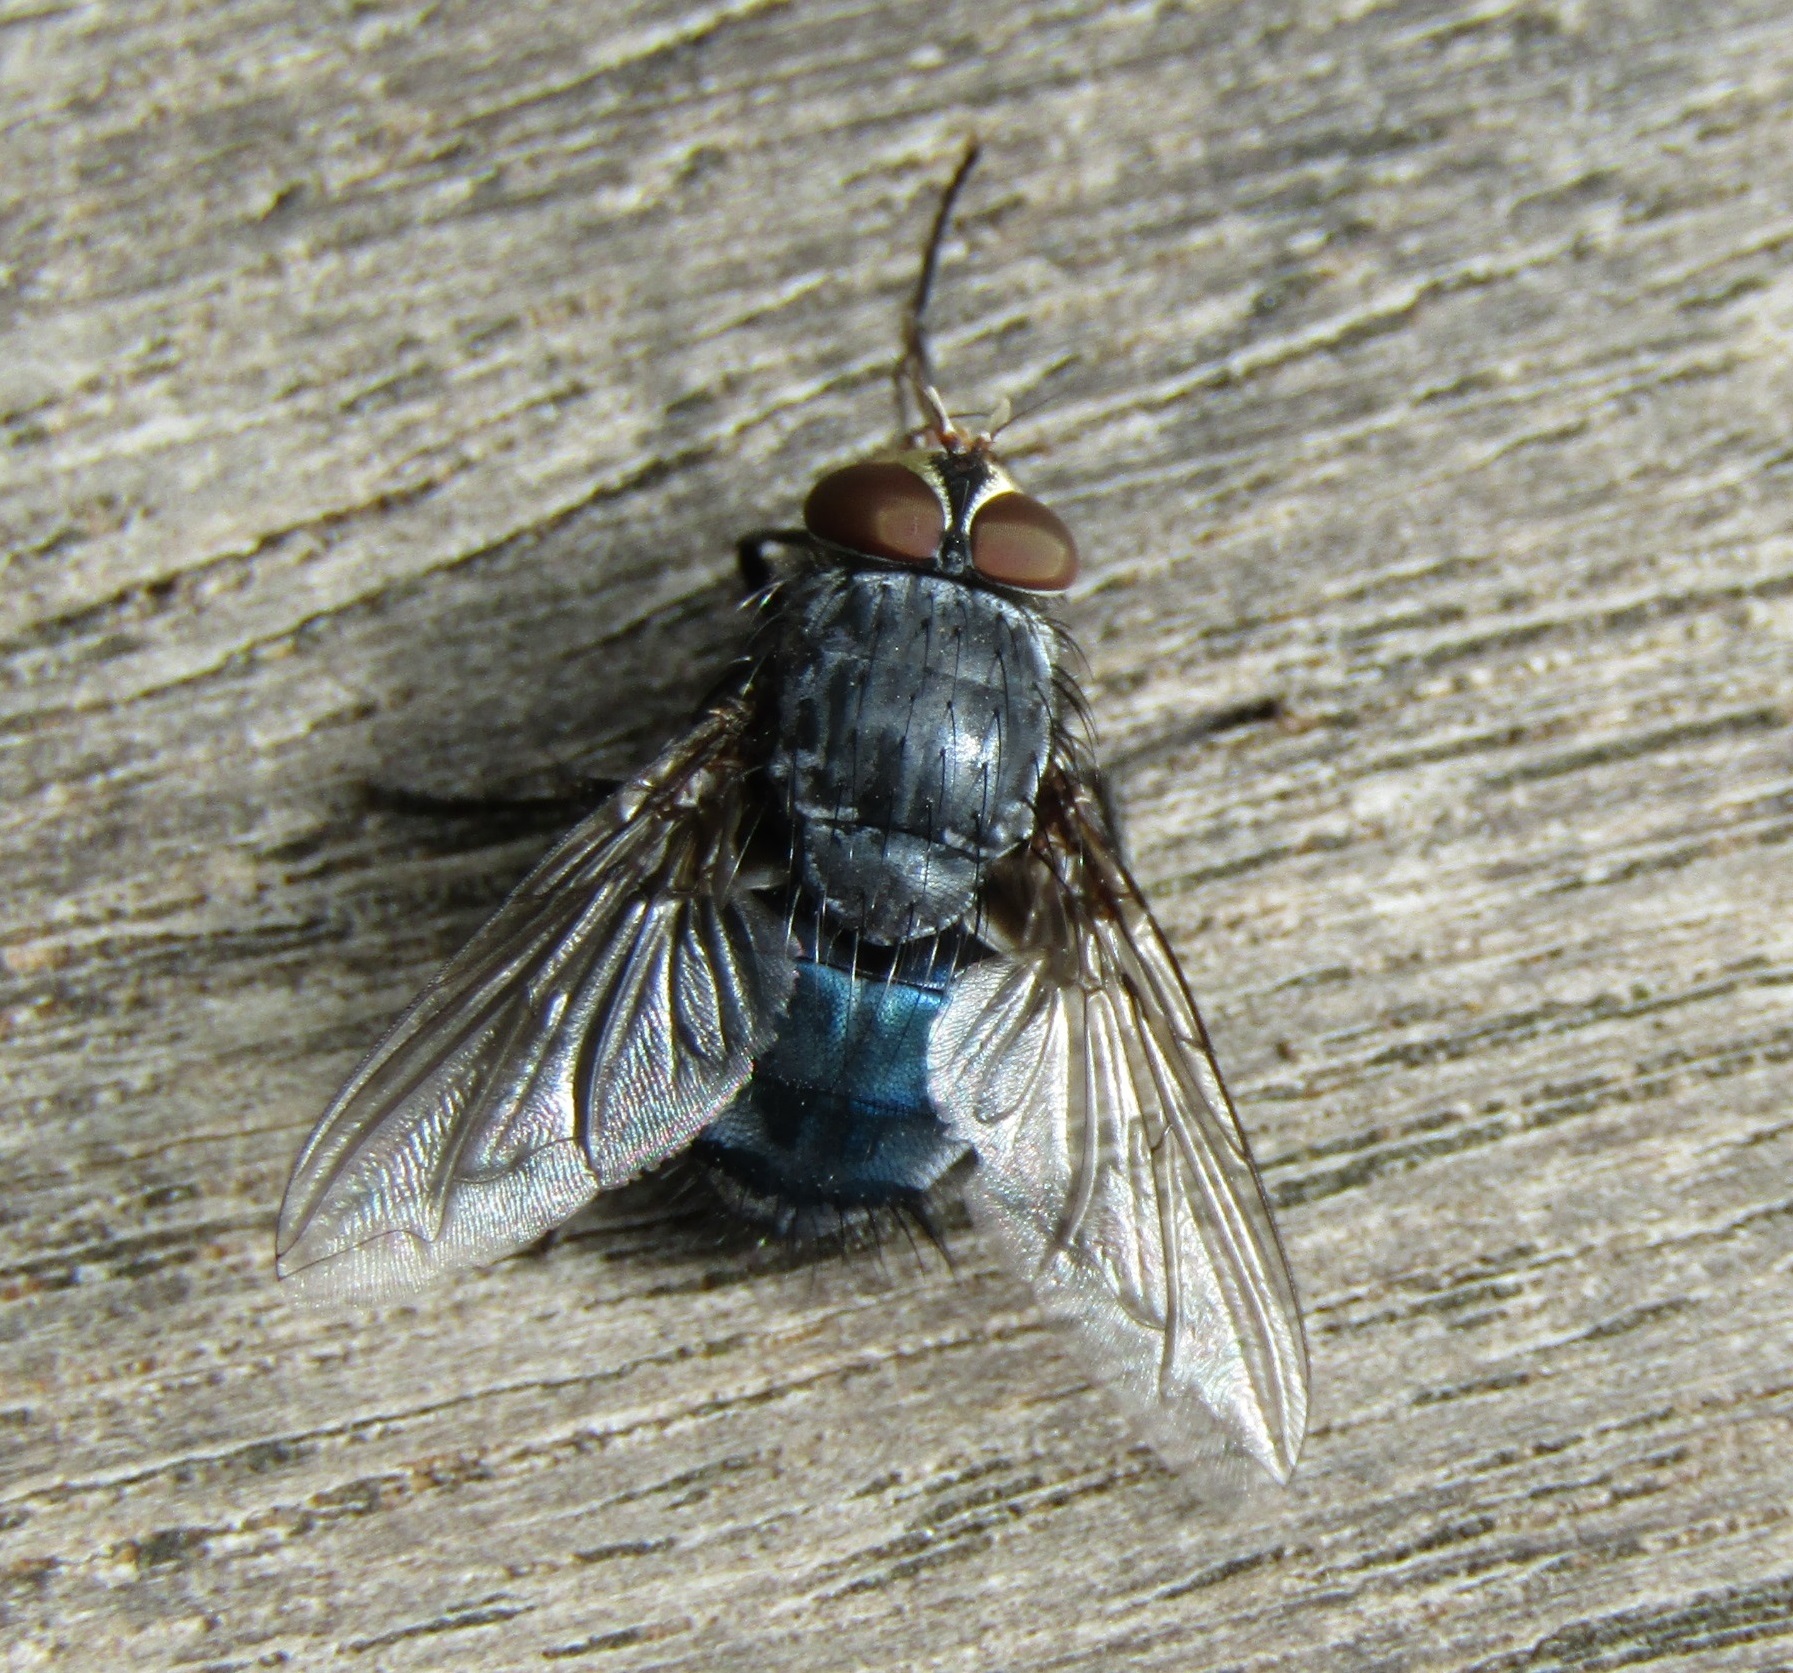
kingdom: Animalia
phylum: Arthropoda
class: Insecta
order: Diptera
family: Calliphoridae
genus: Calliphora
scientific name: Calliphora vicina
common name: Common blow flie
